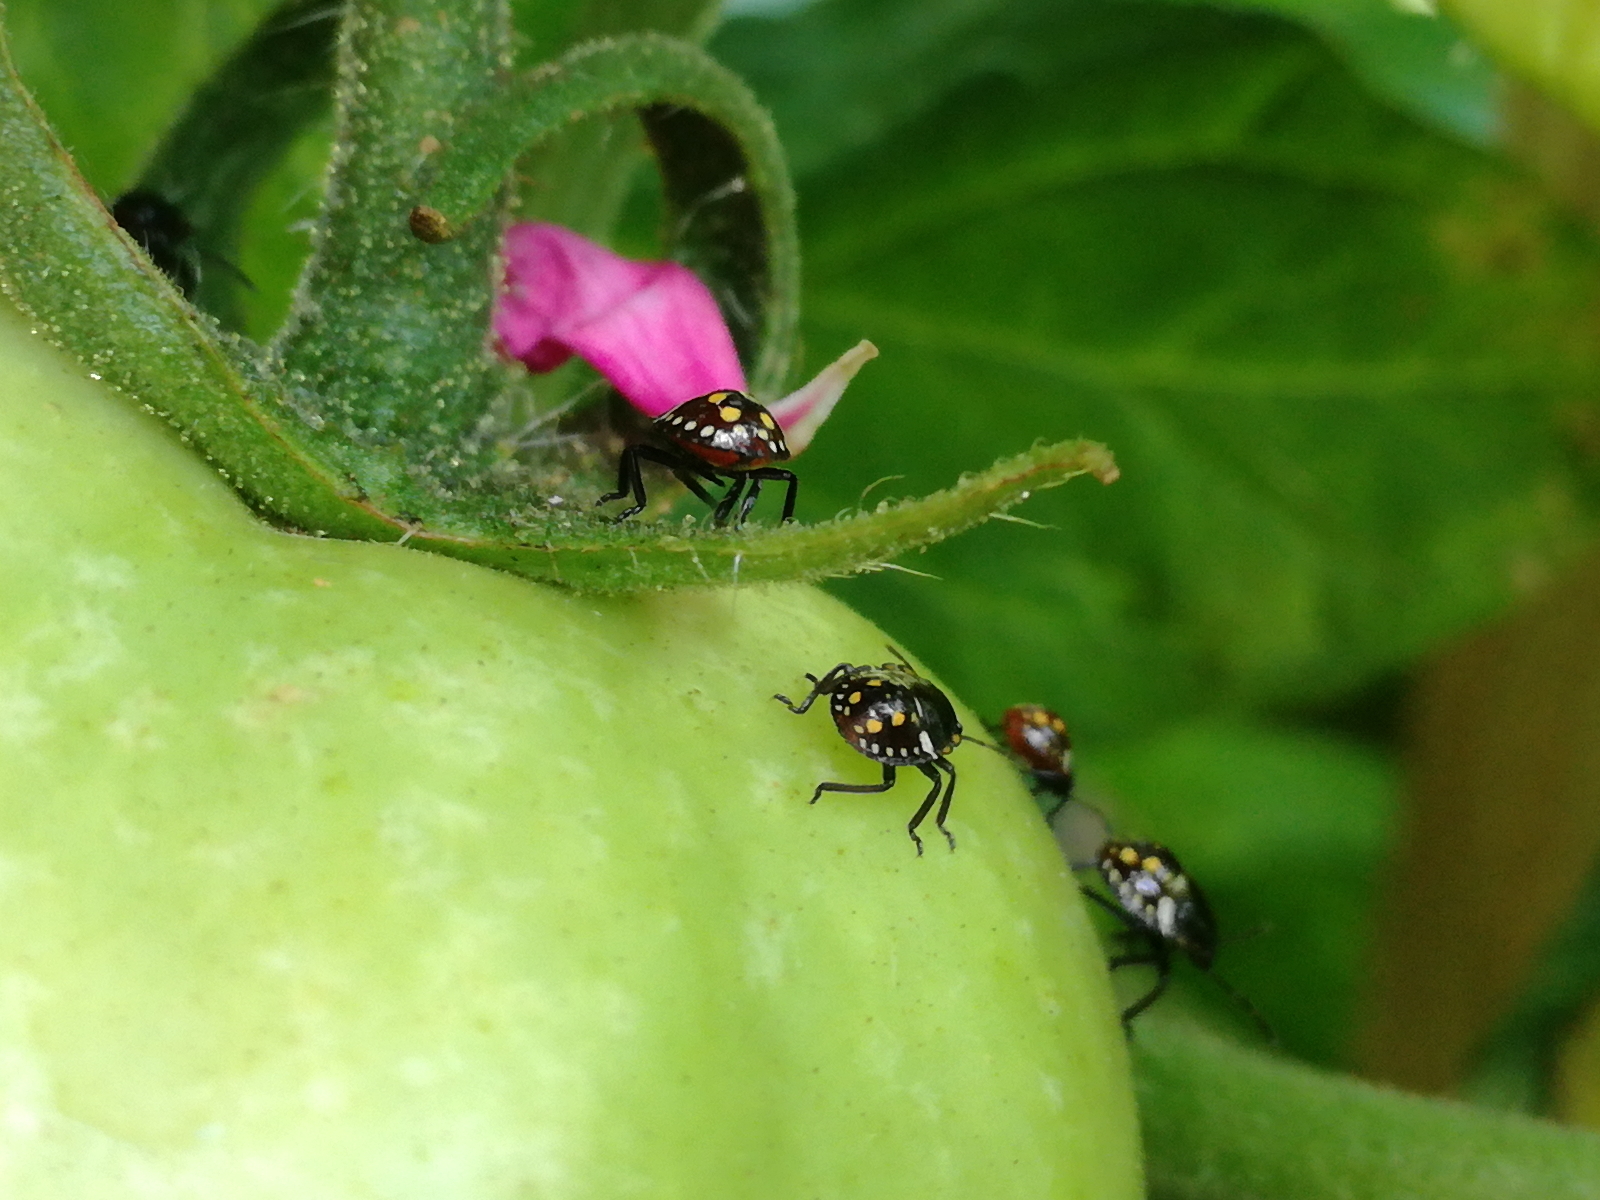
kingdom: Animalia
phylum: Arthropoda
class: Insecta
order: Hemiptera
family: Pentatomidae
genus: Nezara
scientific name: Nezara viridula
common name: Southern green stink bug
